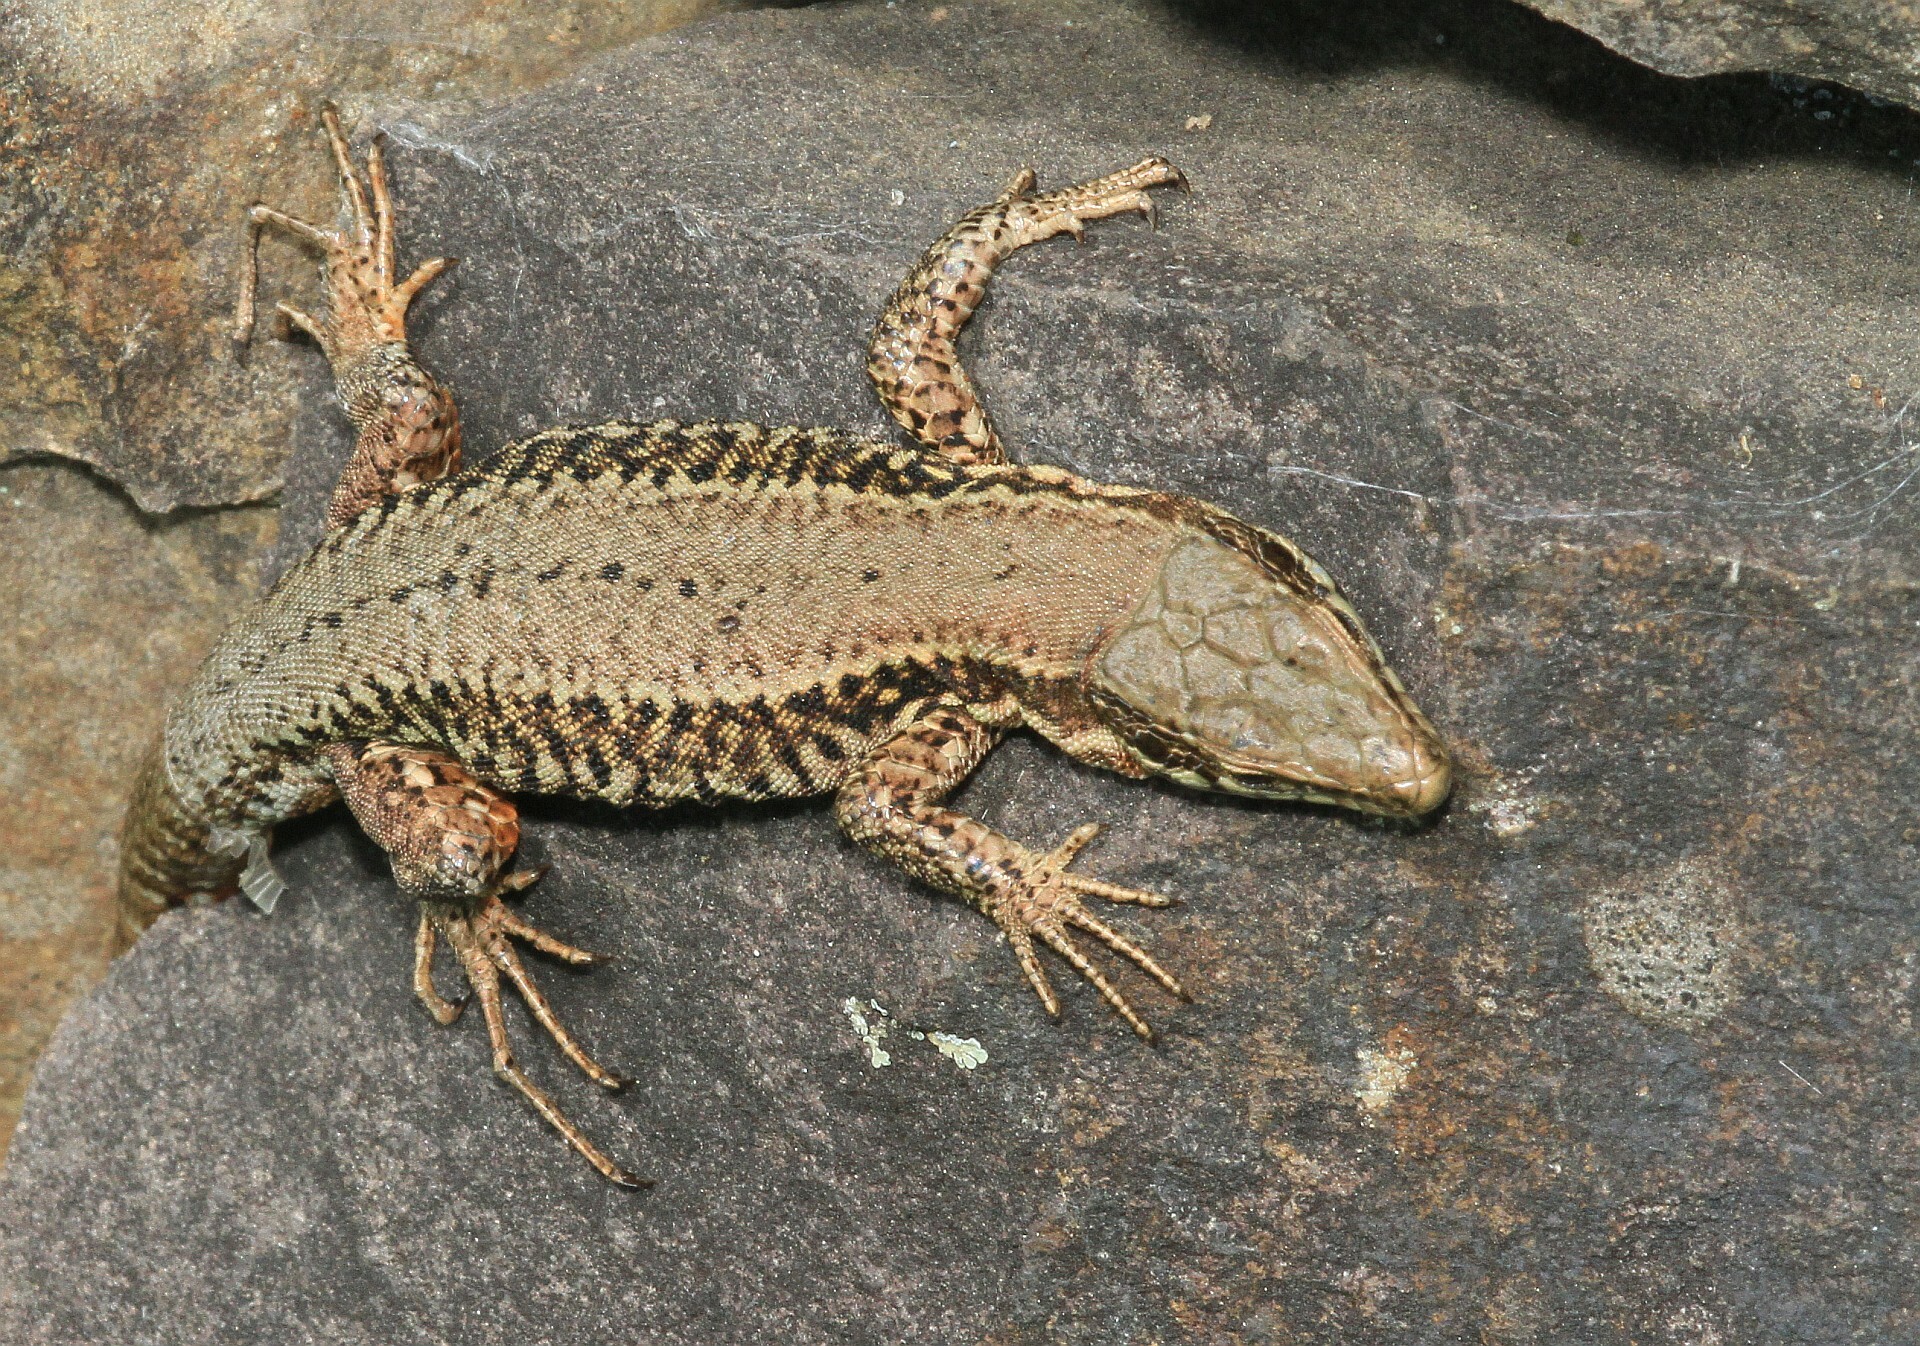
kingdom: Animalia
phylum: Chordata
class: Squamata
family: Lacertidae
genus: Podarcis
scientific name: Podarcis muralis
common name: Common wall lizard
